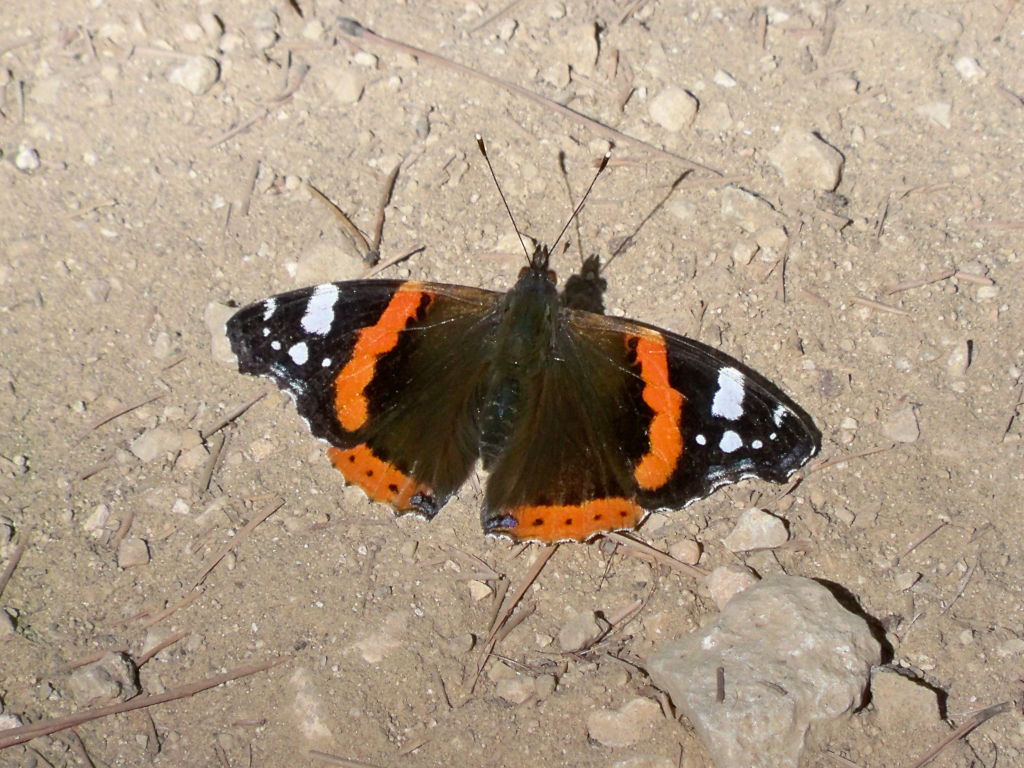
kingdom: Animalia
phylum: Arthropoda
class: Insecta
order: Lepidoptera
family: Nymphalidae
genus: Vanessa
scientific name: Vanessa atalanta
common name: Red admiral
